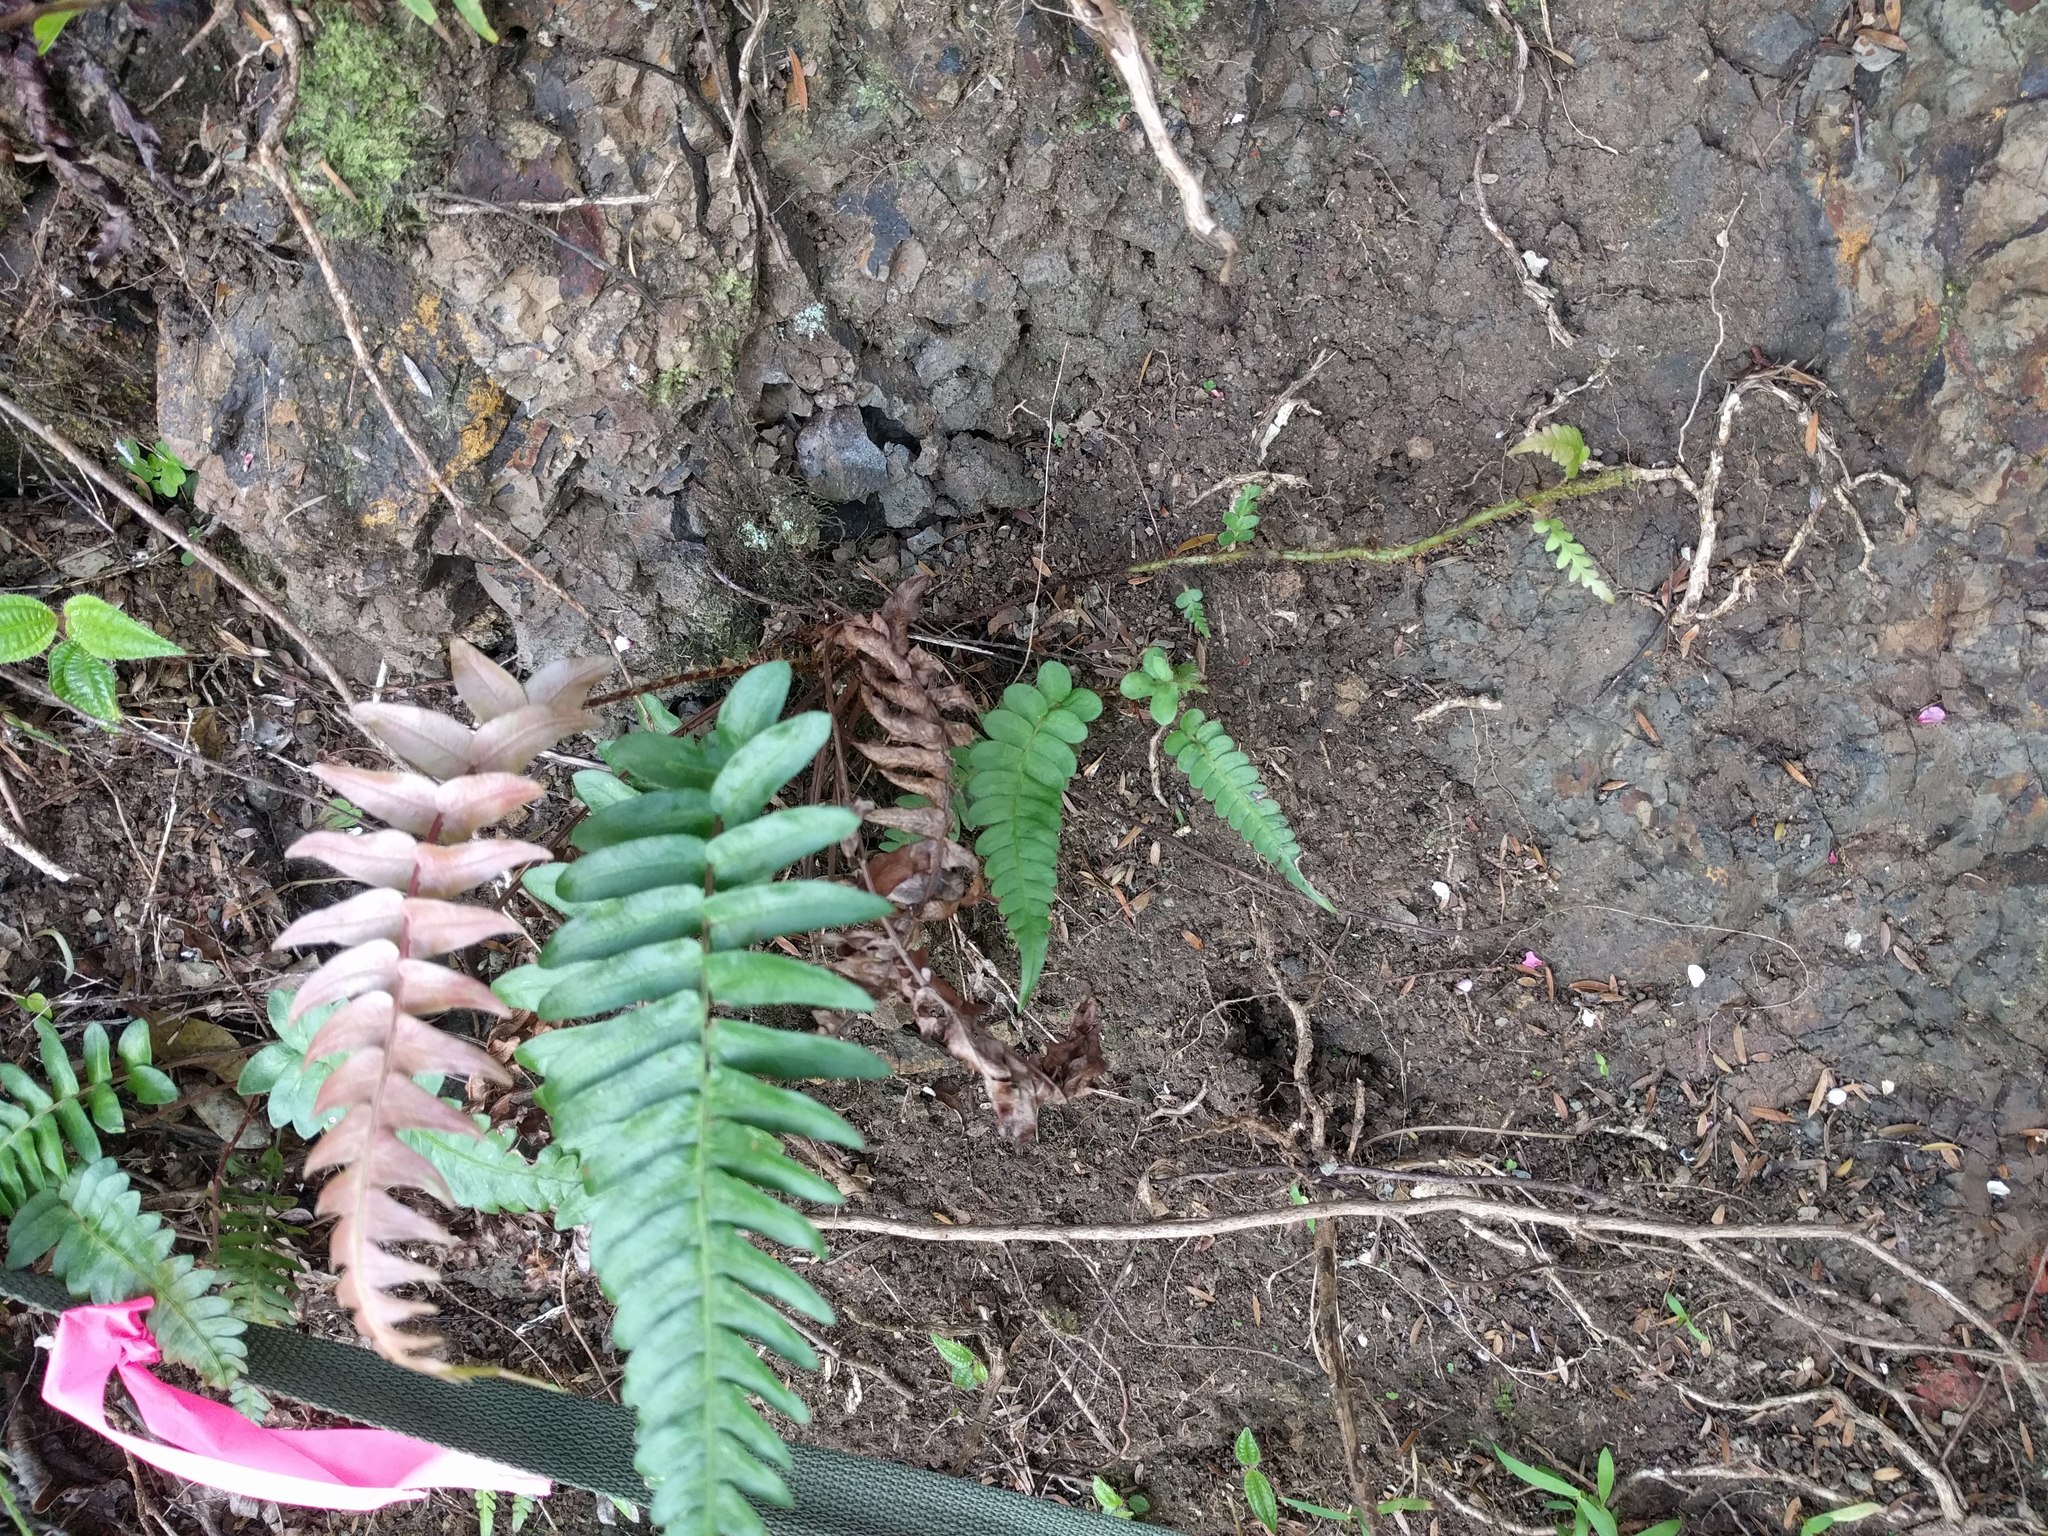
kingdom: Plantae
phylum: Tracheophyta
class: Polypodiopsida
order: Polypodiales
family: Blechnaceae
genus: Blechnum
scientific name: Blechnum appendiculatum
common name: Palm fern
